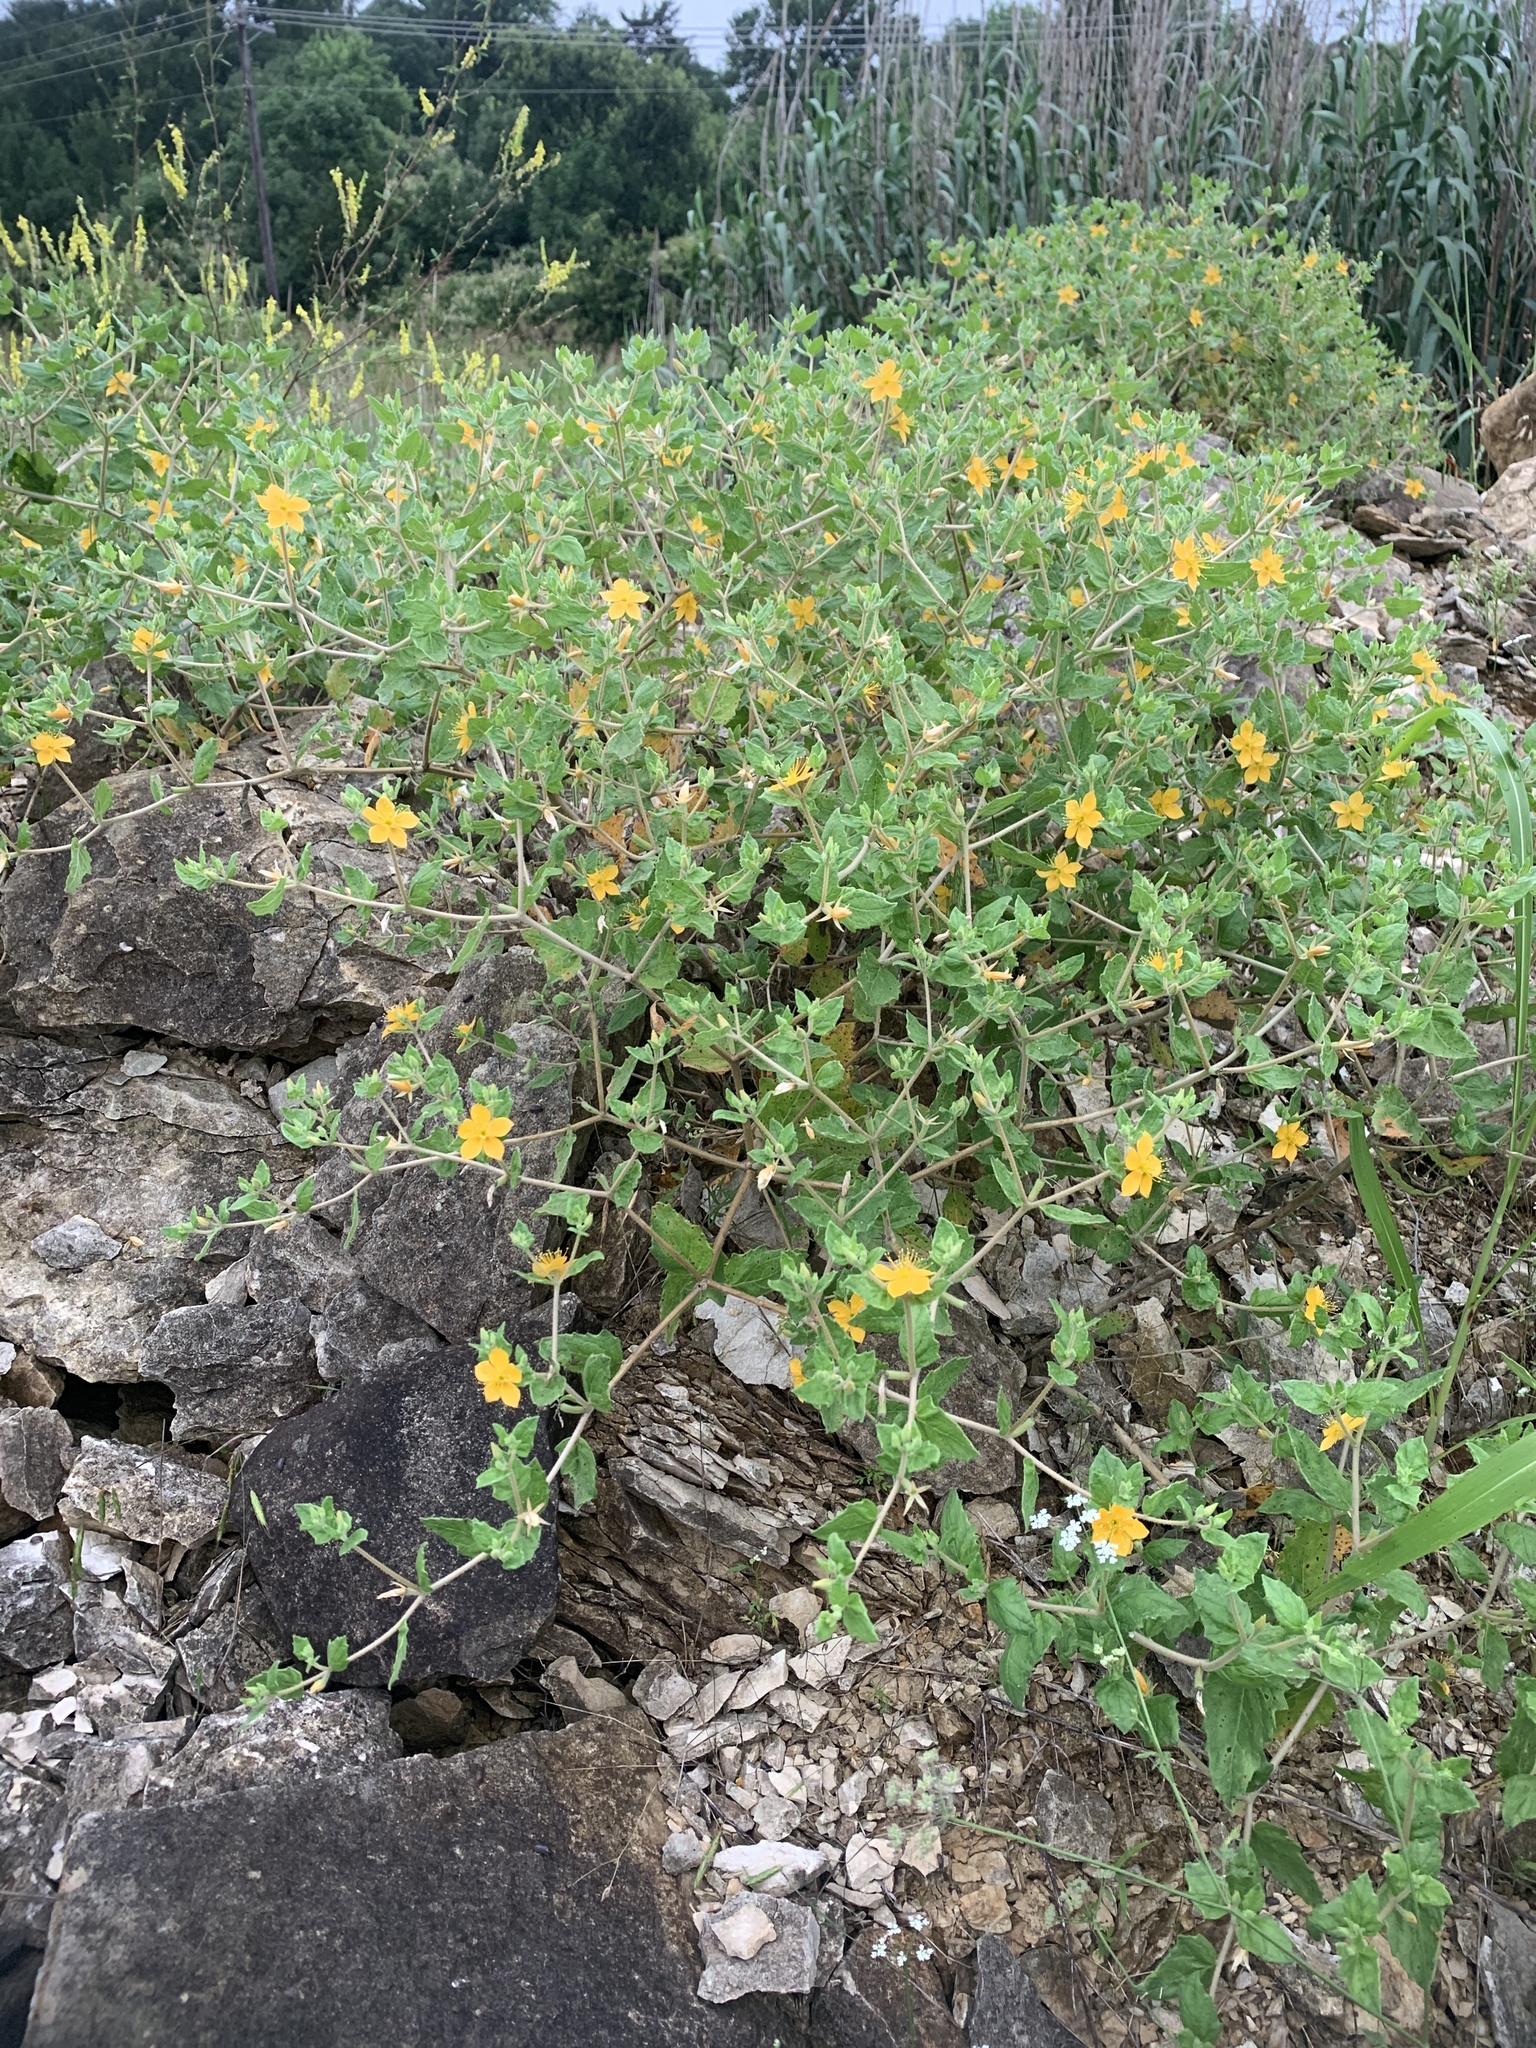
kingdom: Plantae
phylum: Tracheophyta
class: Magnoliopsida
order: Cornales
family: Loasaceae
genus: Mentzelia
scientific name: Mentzelia oligosperma
